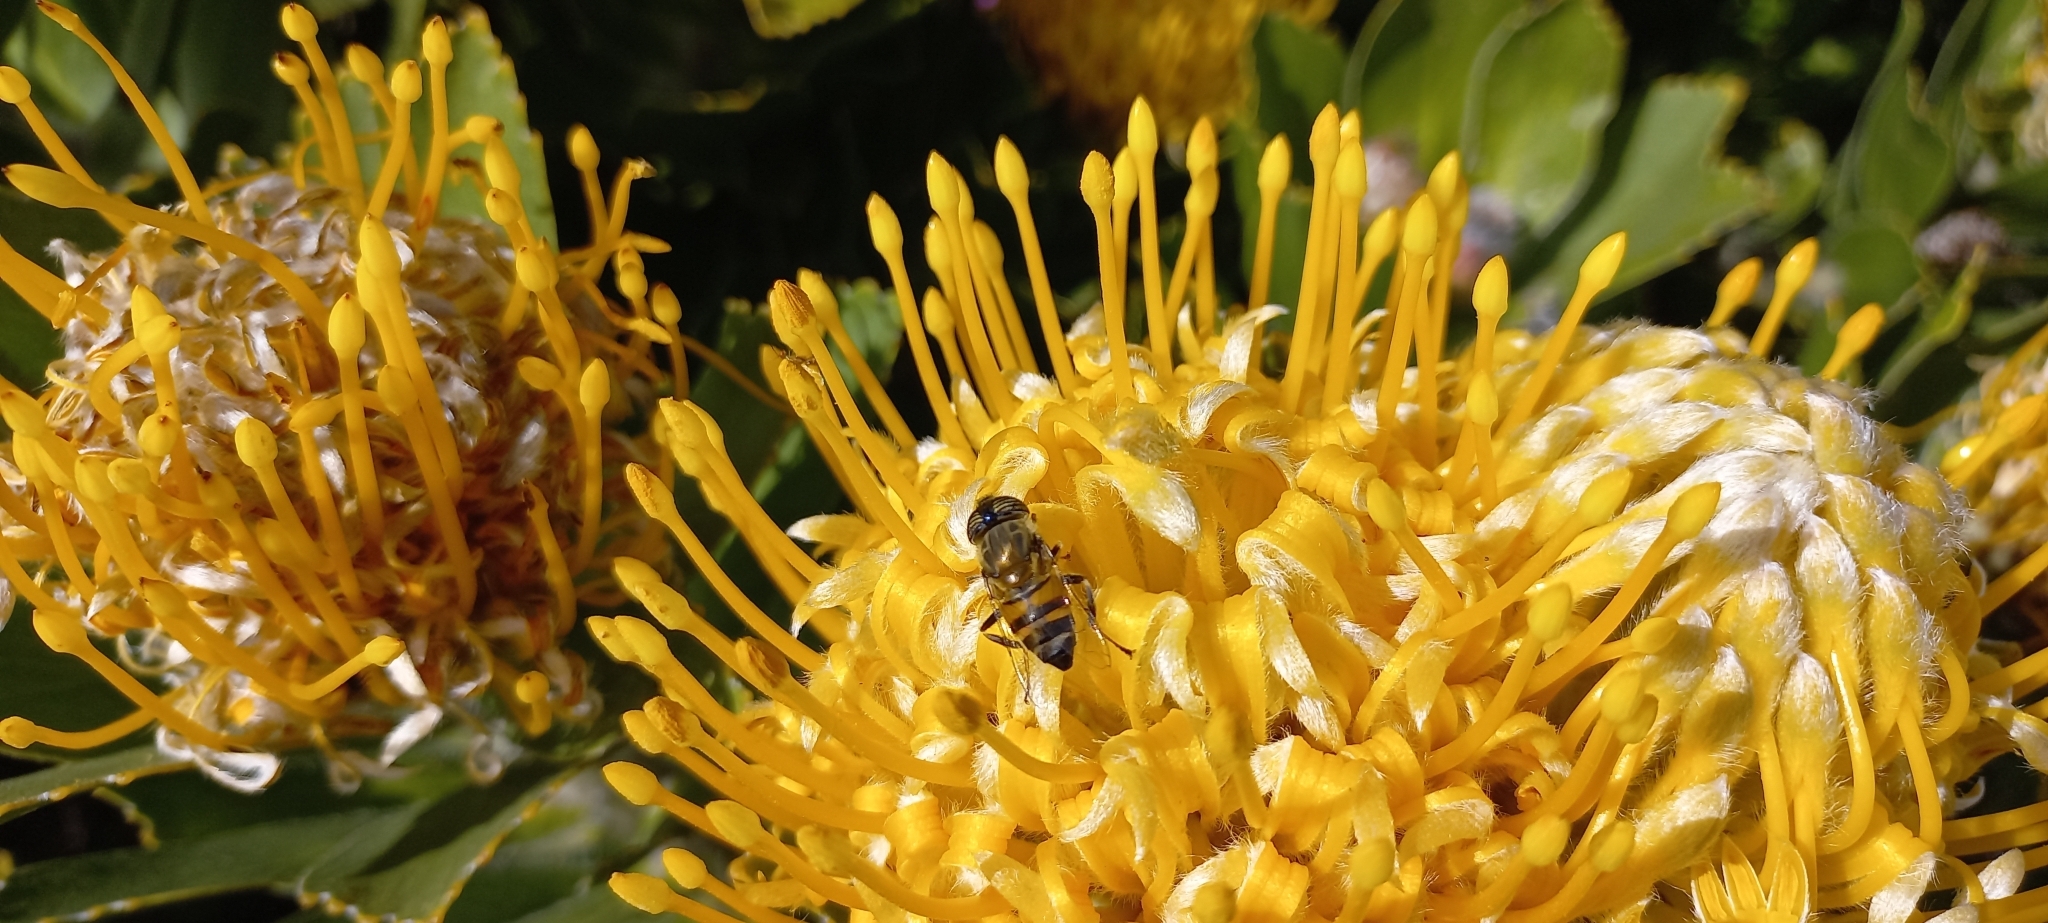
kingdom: Plantae
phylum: Tracheophyta
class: Magnoliopsida
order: Proteales
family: Proteaceae
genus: Leucospermum
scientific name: Leucospermum conocarpodendron
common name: Tree pincushion
